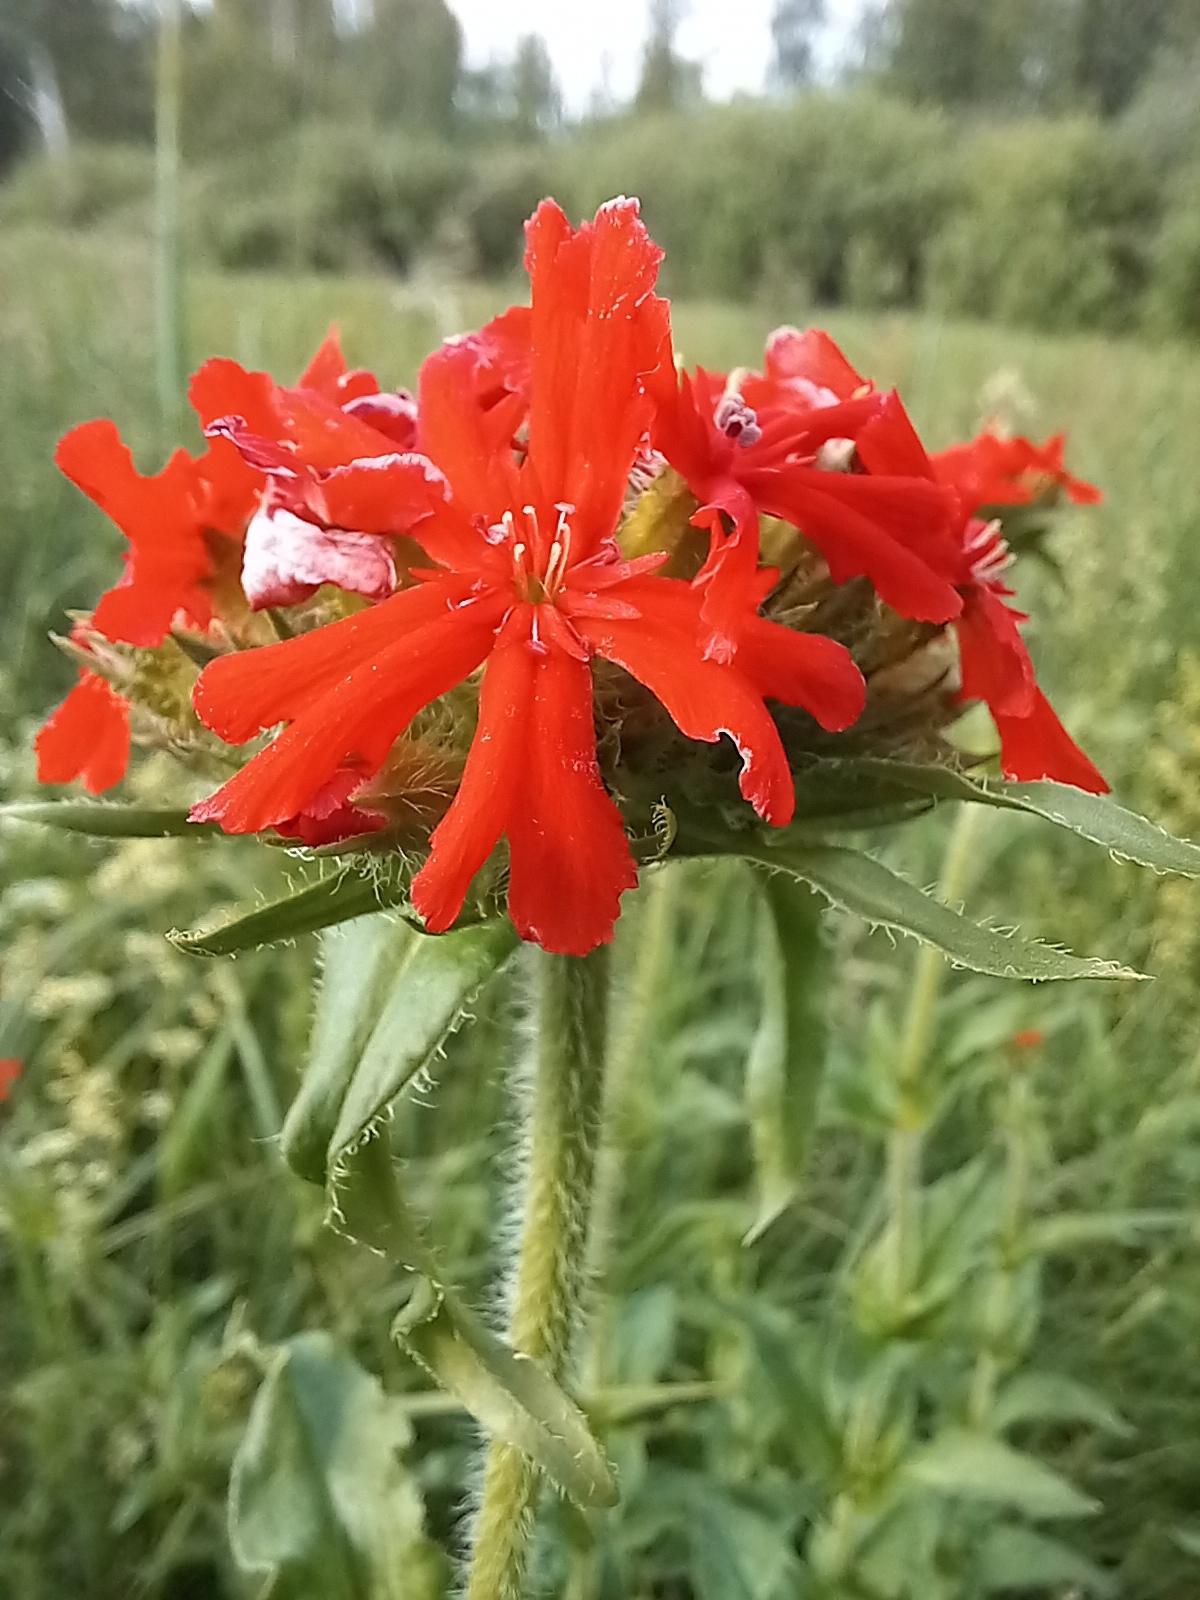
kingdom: Plantae
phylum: Tracheophyta
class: Magnoliopsida
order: Caryophyllales
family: Caryophyllaceae
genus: Silene
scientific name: Silene chalcedonica
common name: Maltese-cross
